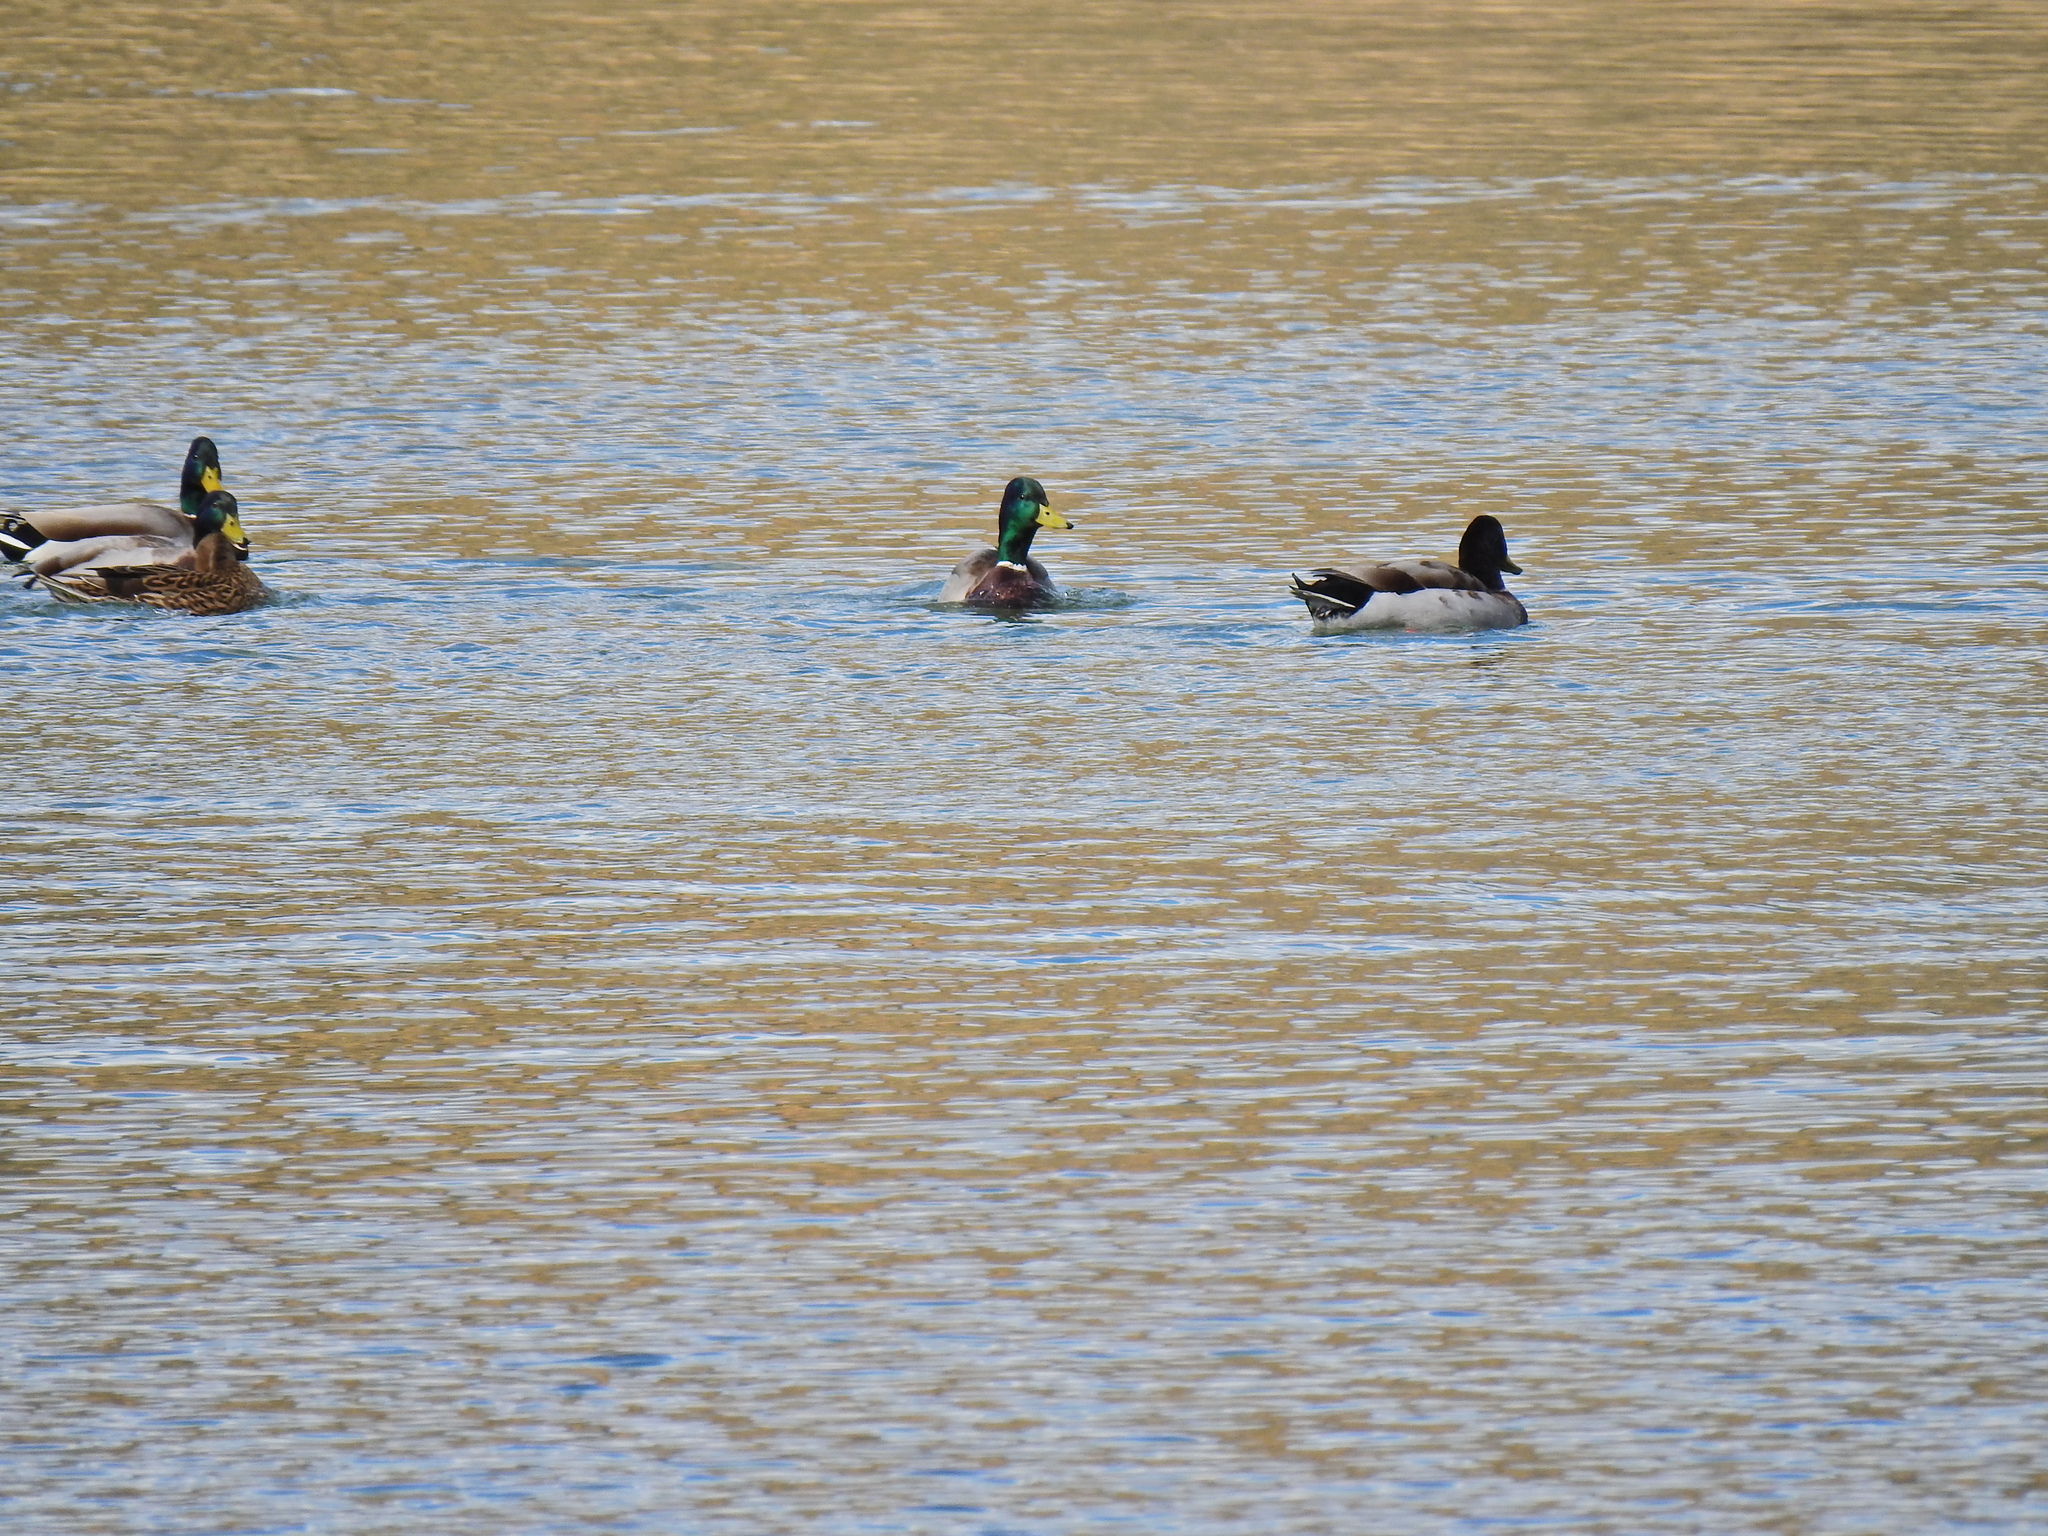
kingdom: Animalia
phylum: Chordata
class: Aves
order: Anseriformes
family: Anatidae
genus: Anas
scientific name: Anas platyrhynchos
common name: Mallard
